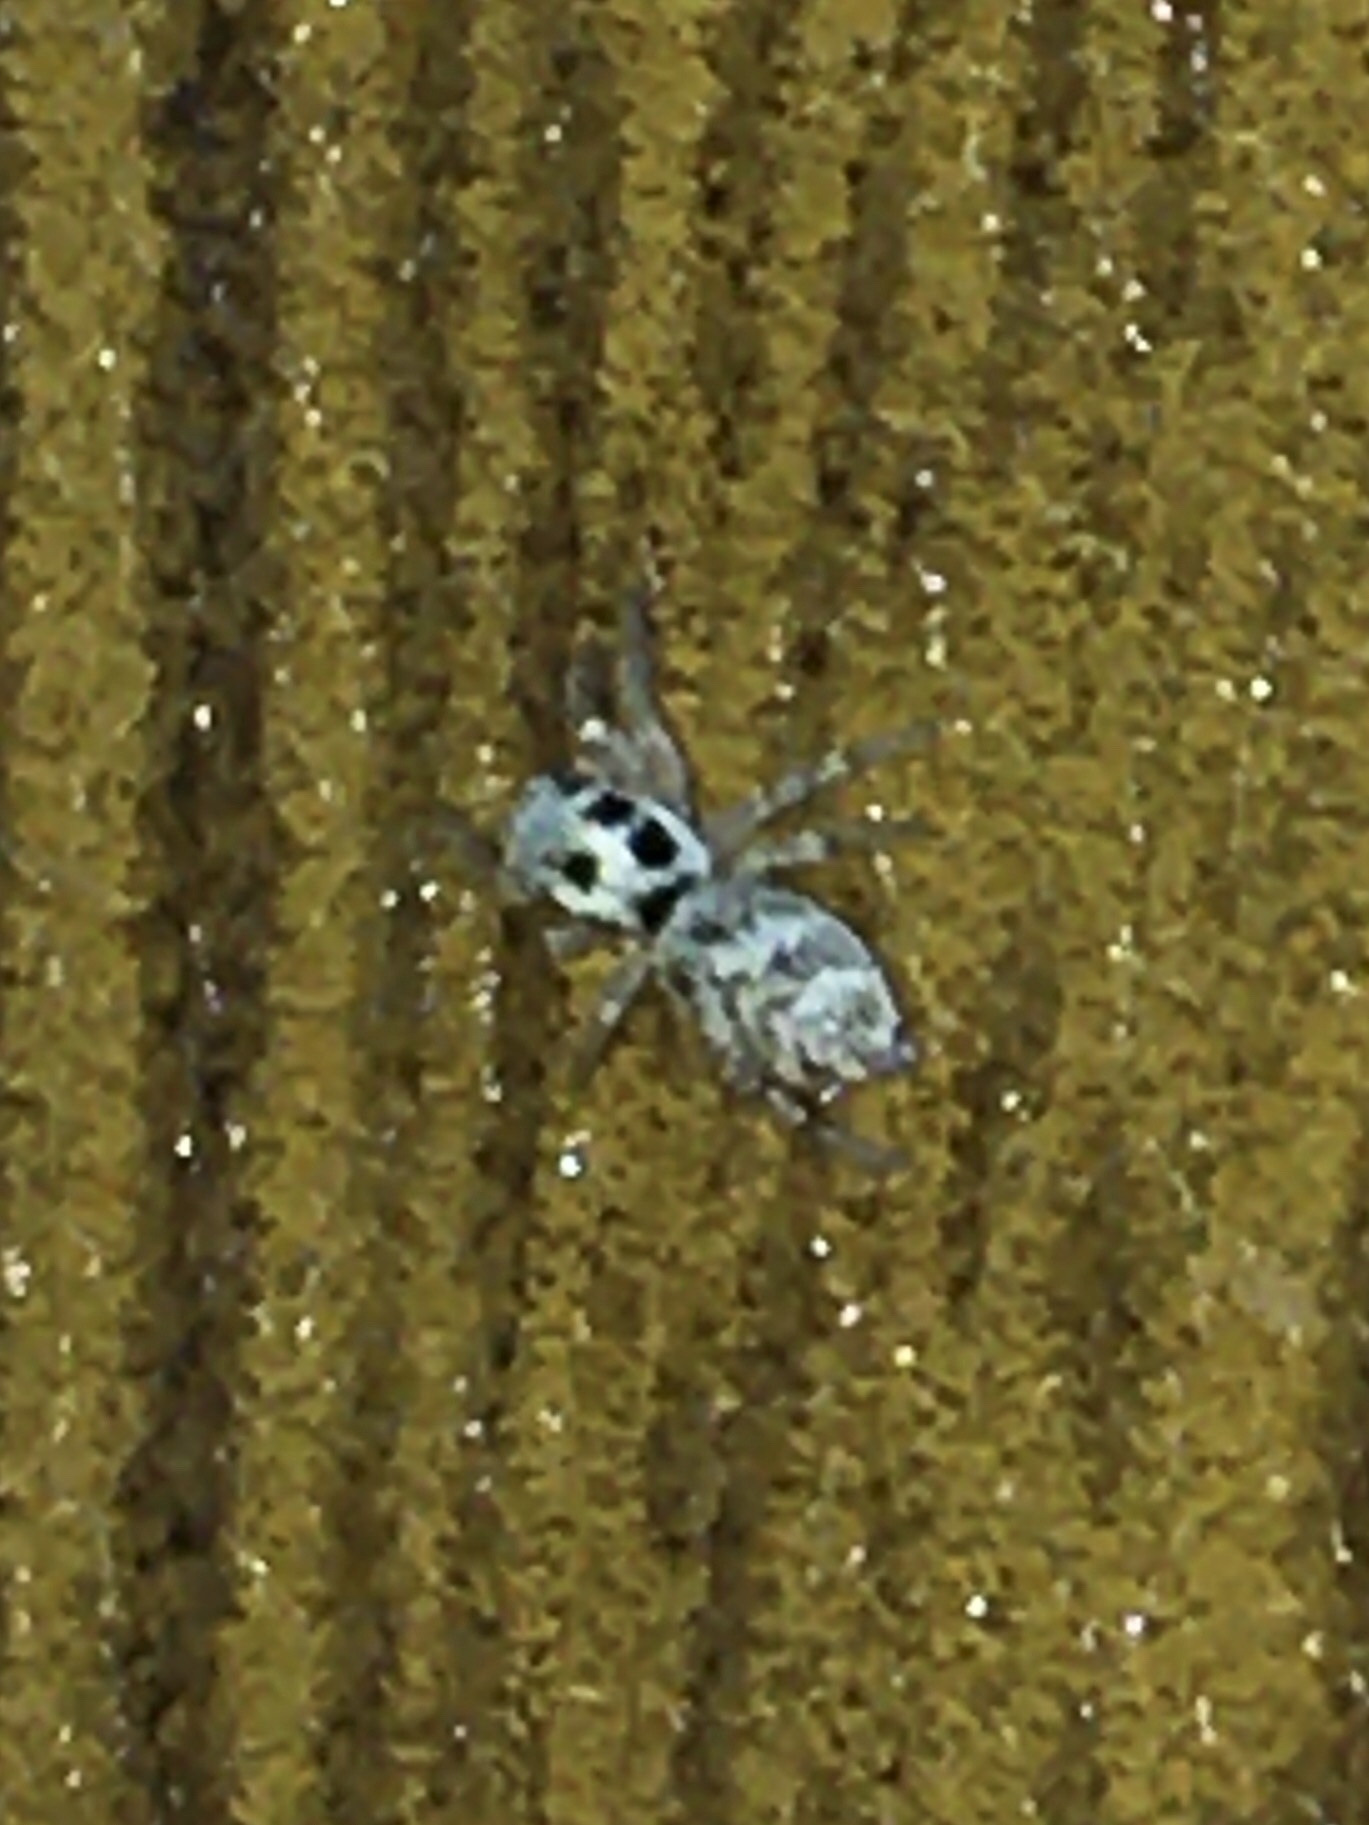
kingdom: Animalia
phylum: Arthropoda
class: Arachnida
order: Araneae
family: Salticidae
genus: Salticus
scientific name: Salticus scenicus
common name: Zebra jumper
